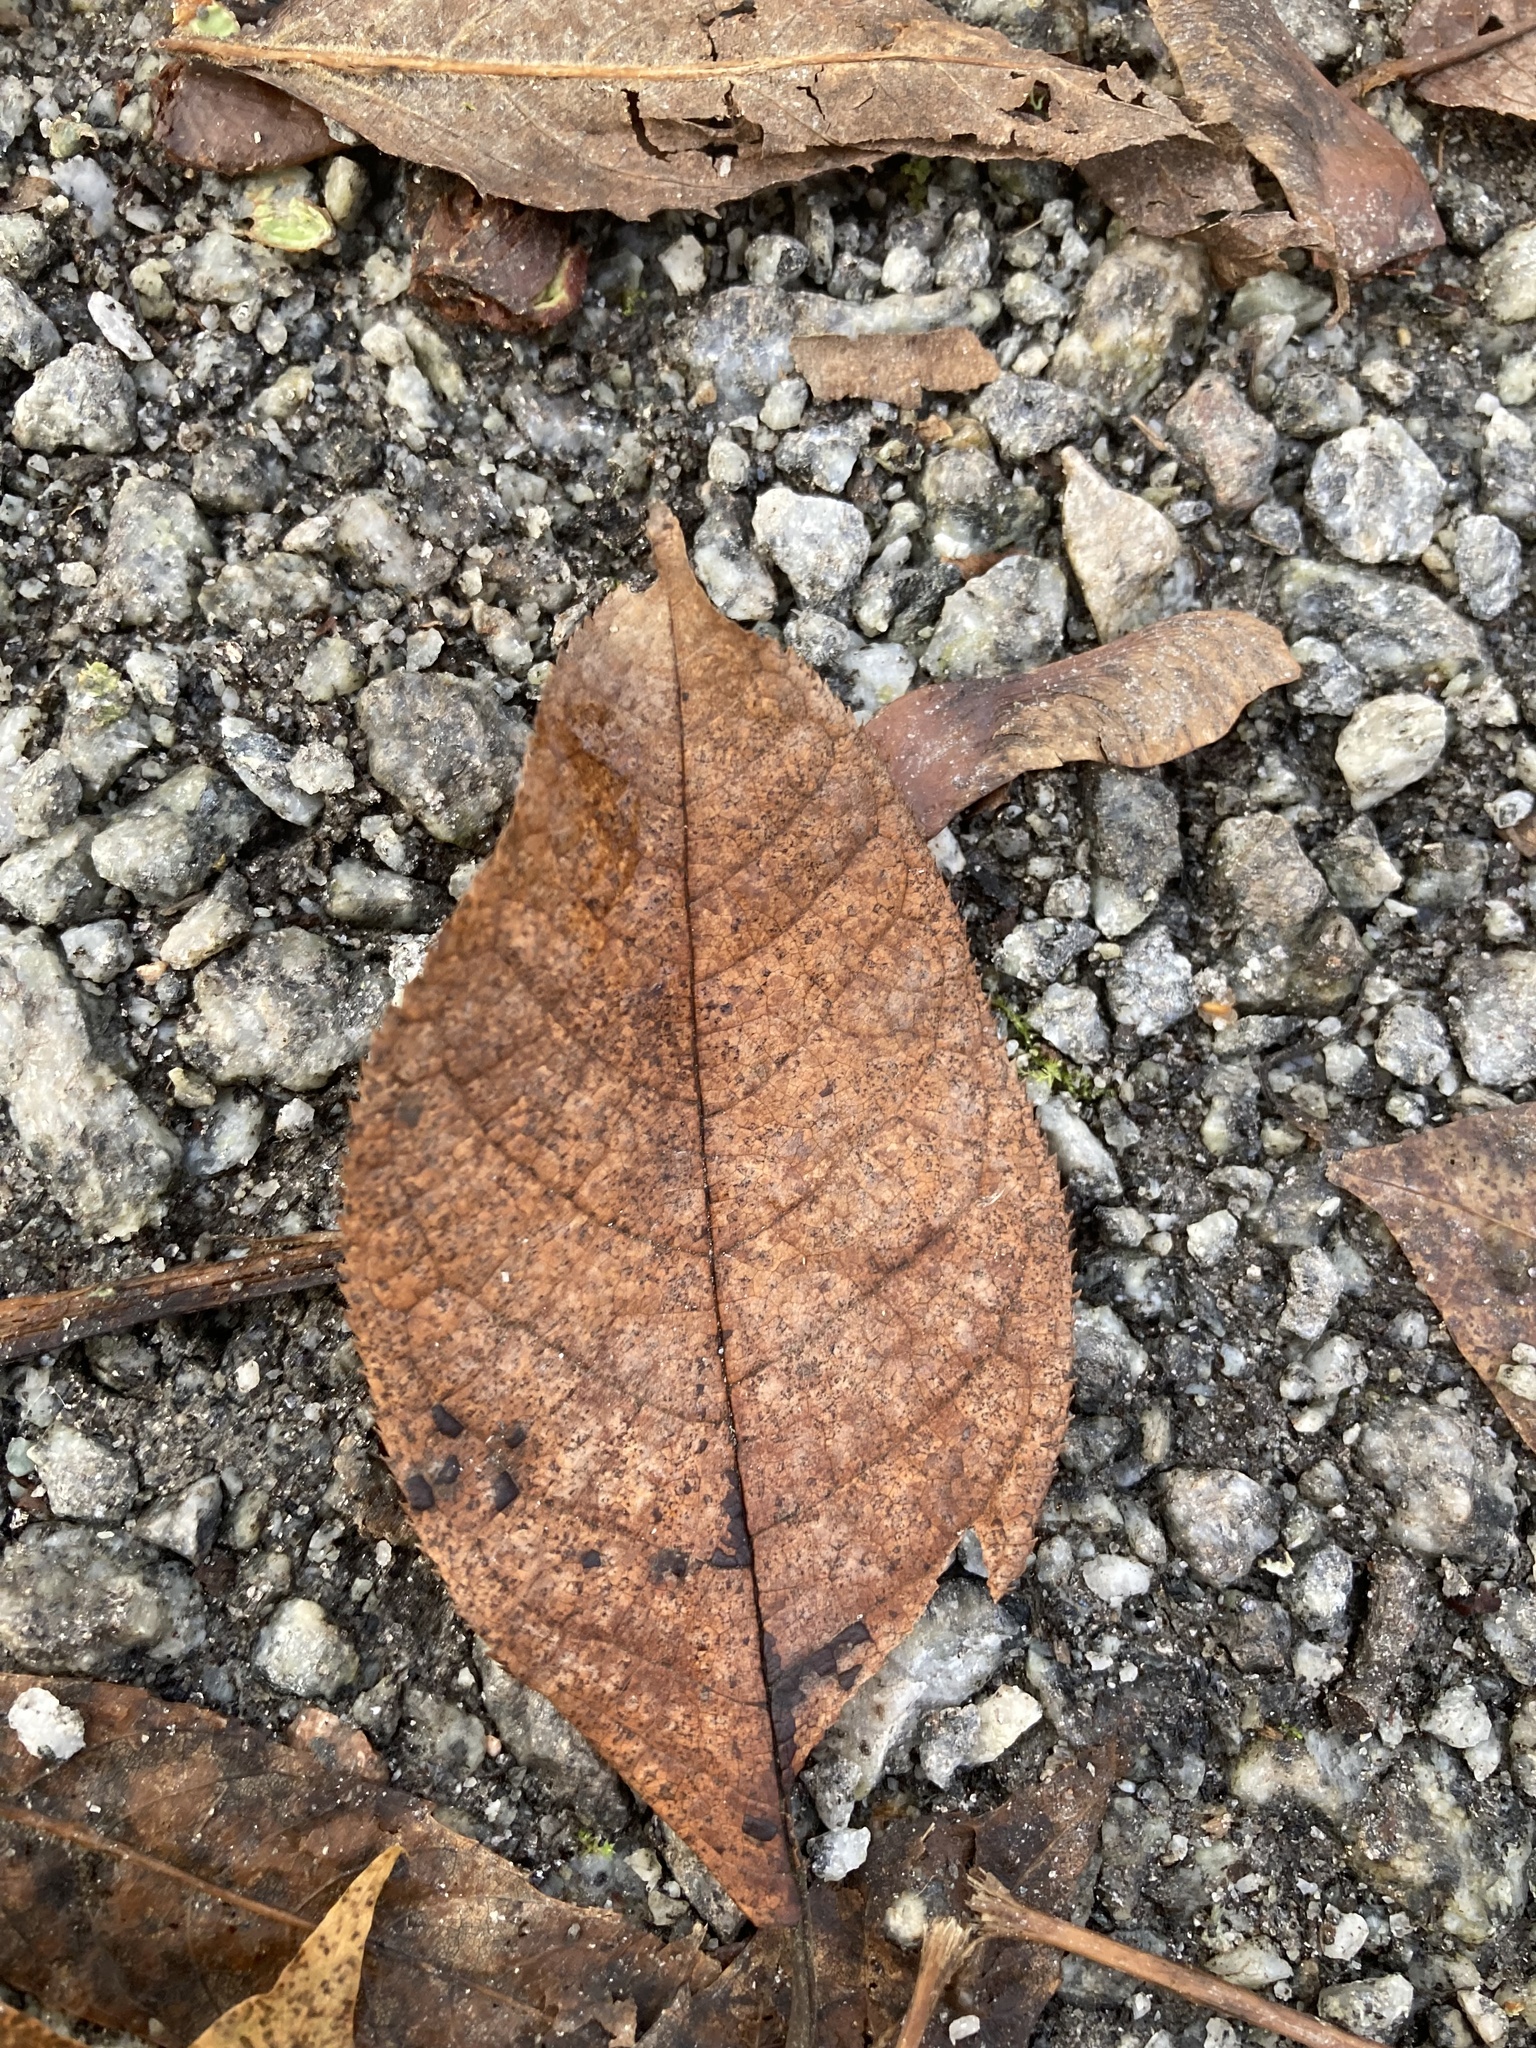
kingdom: Plantae
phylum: Tracheophyta
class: Magnoliopsida
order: Rosales
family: Rosaceae
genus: Prunus
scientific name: Prunus padus
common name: Bird cherry
